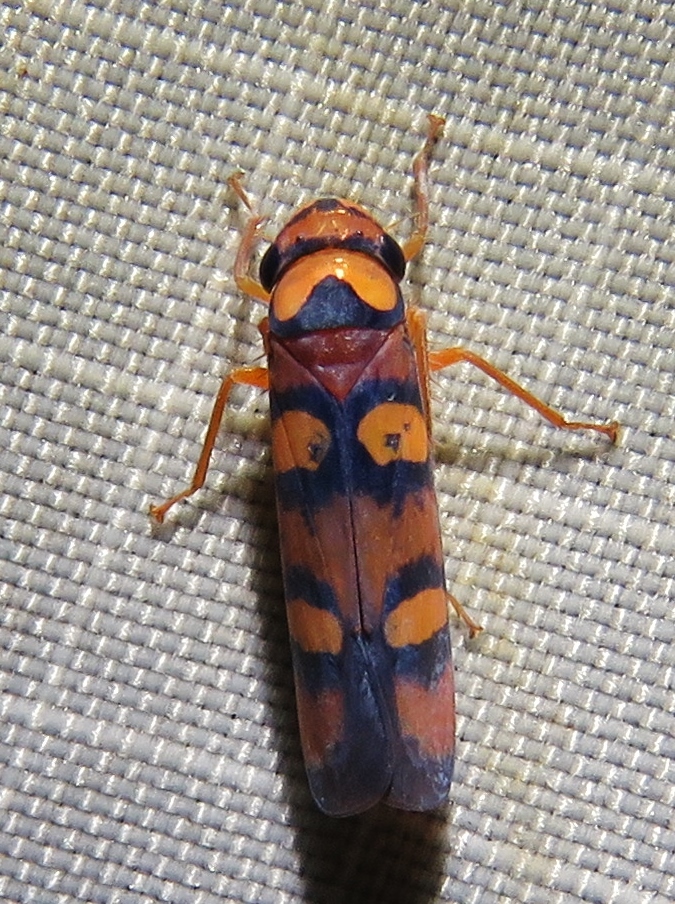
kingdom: Animalia
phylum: Arthropoda
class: Insecta
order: Hemiptera
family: Cicadellidae
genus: Pawiloma
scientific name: Pawiloma jucunda
